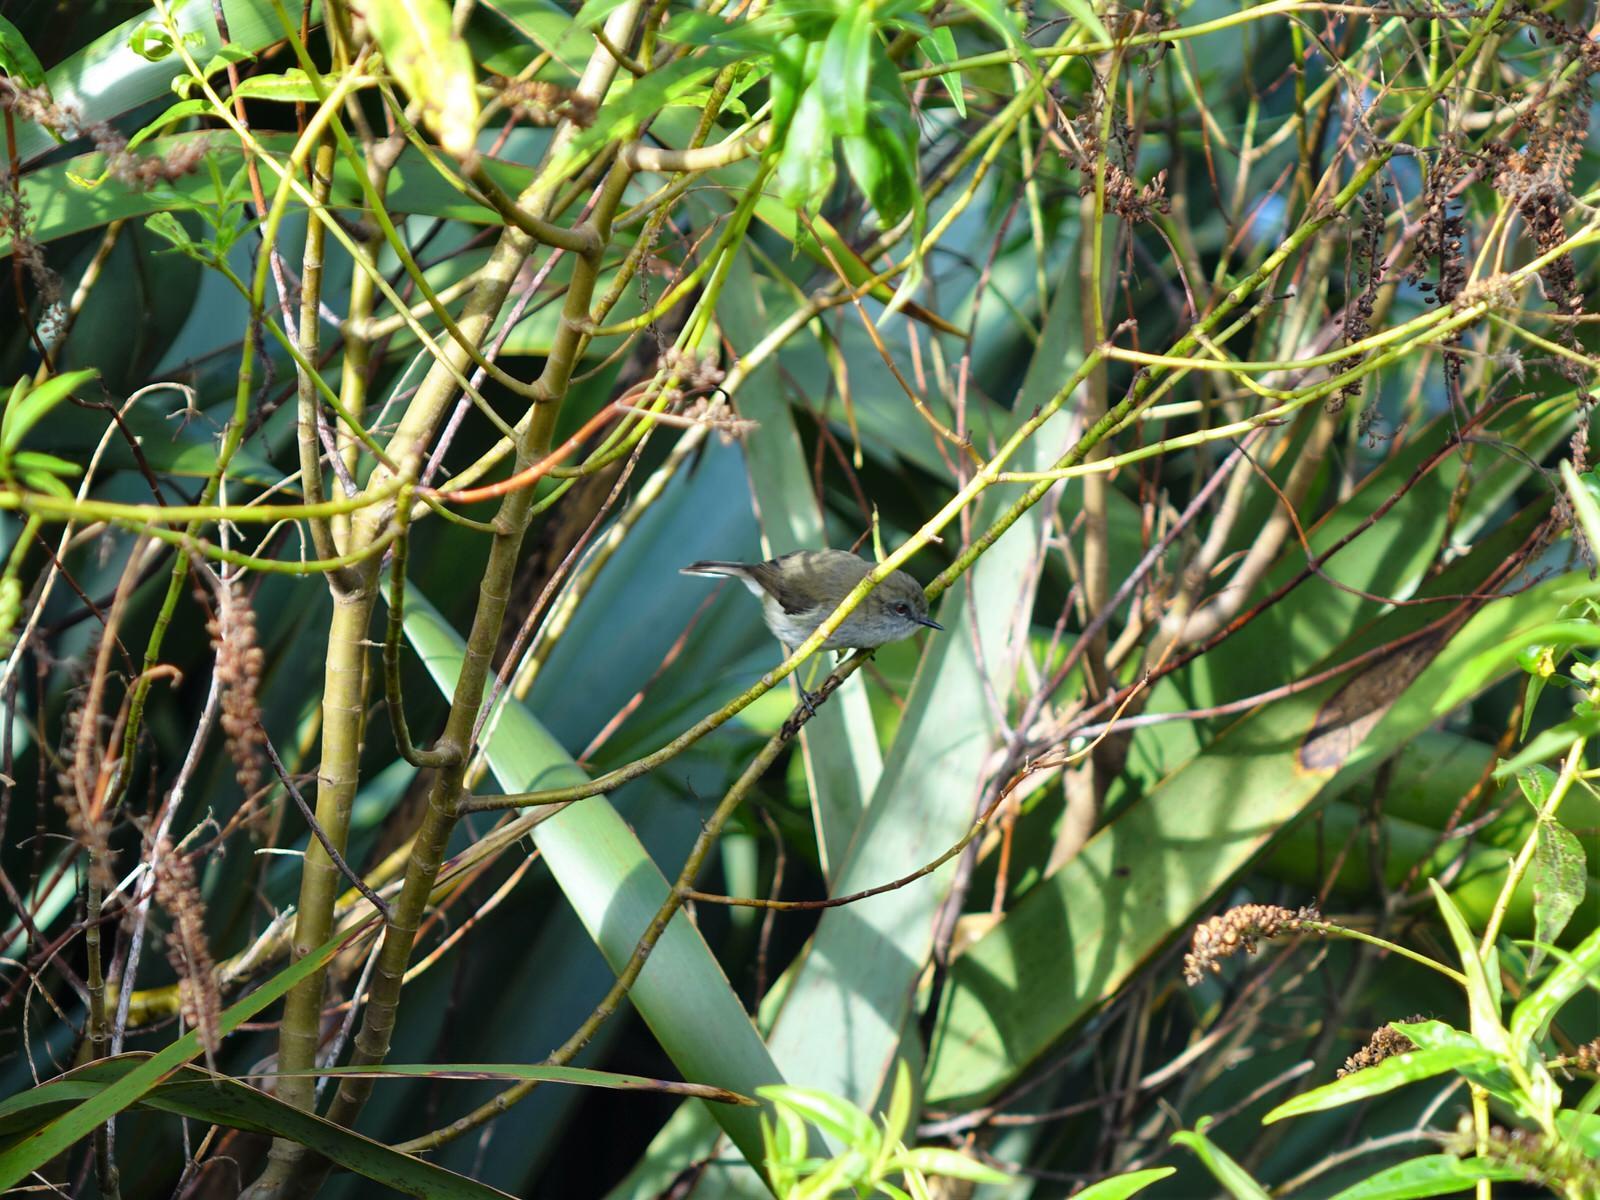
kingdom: Animalia
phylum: Chordata
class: Aves
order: Passeriformes
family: Acanthizidae
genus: Gerygone
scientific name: Gerygone igata
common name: Grey gerygone
